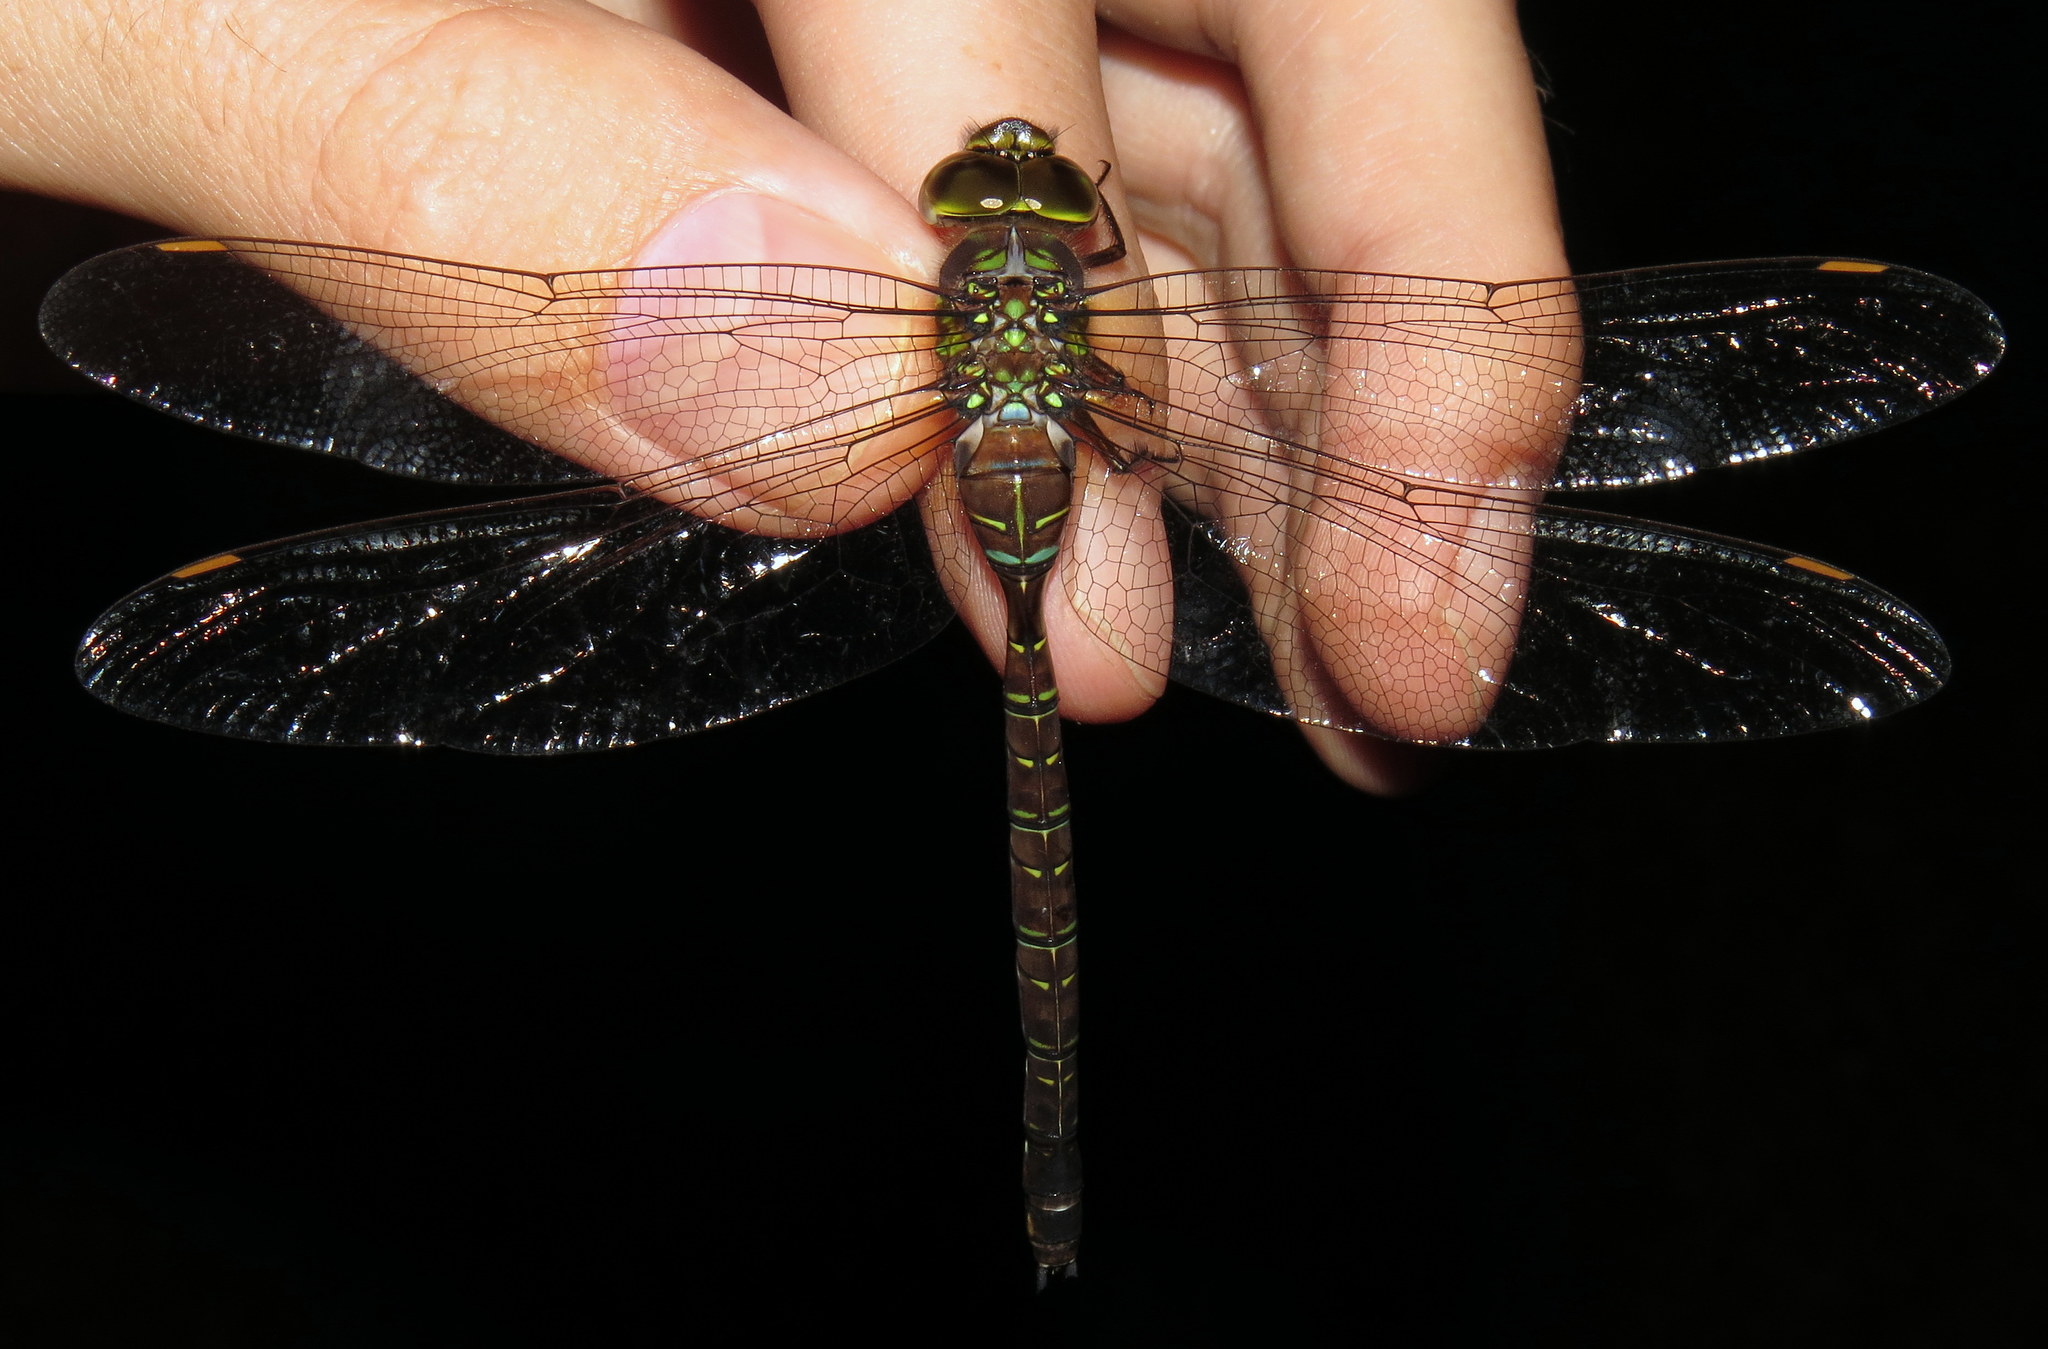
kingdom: Animalia
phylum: Arthropoda
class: Insecta
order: Odonata
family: Aeshnidae
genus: Aeshna
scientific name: Aeshna umbrosa
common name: Shadow darner
